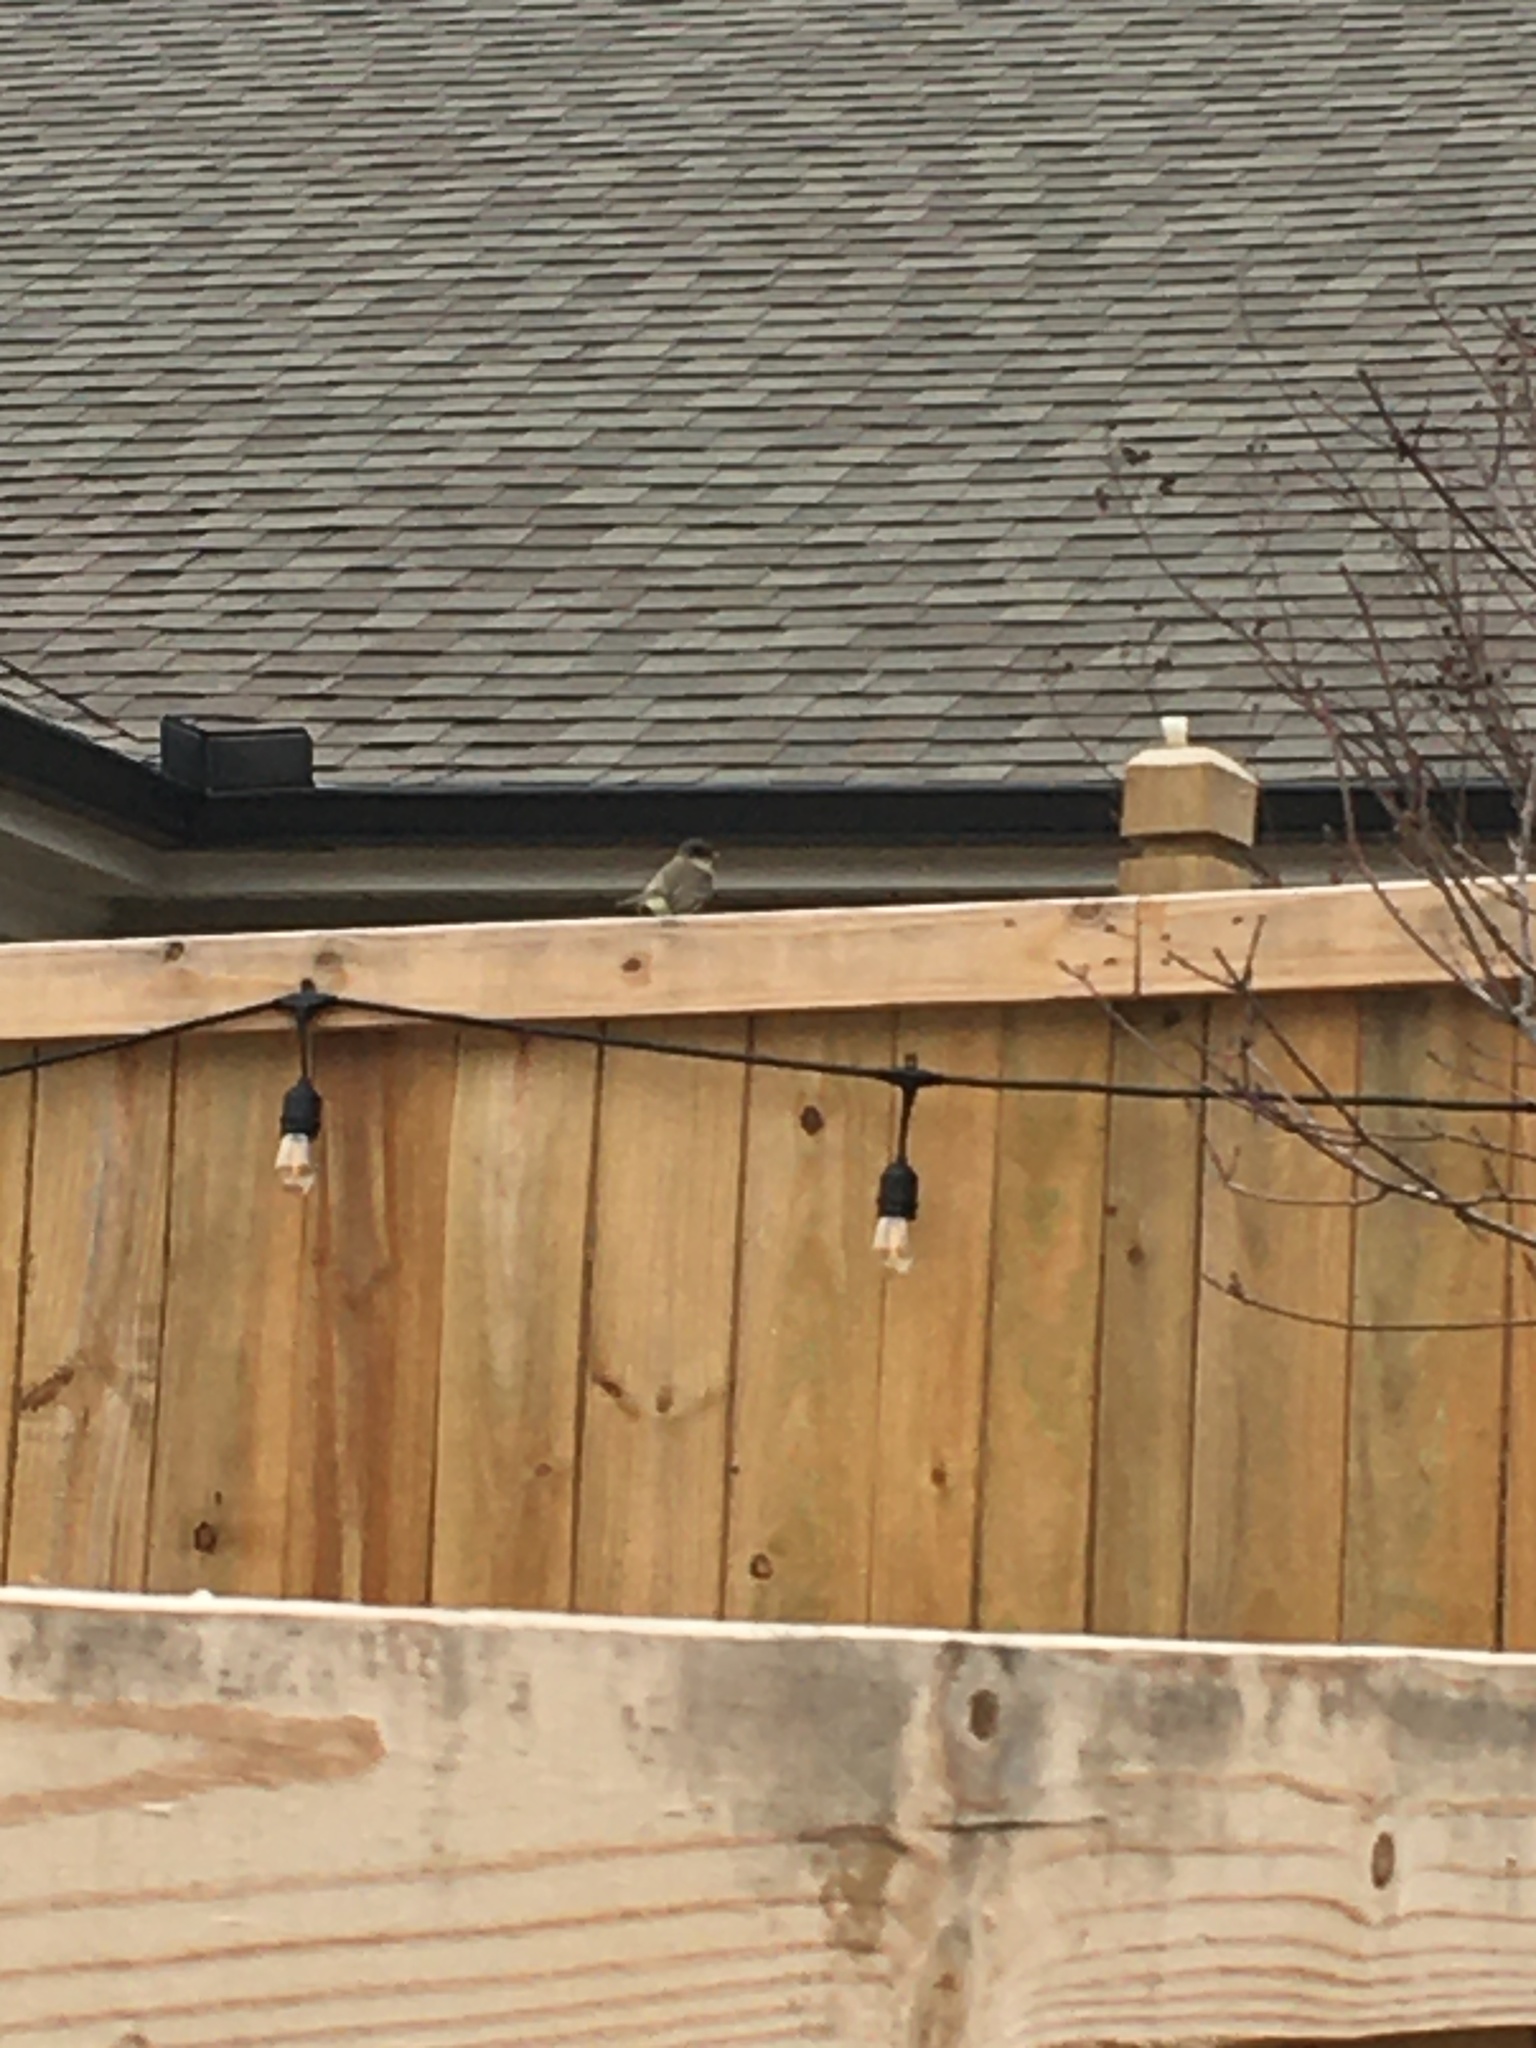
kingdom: Animalia
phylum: Chordata
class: Aves
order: Passeriformes
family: Tyrannidae
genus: Sayornis
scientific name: Sayornis phoebe
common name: Eastern phoebe
